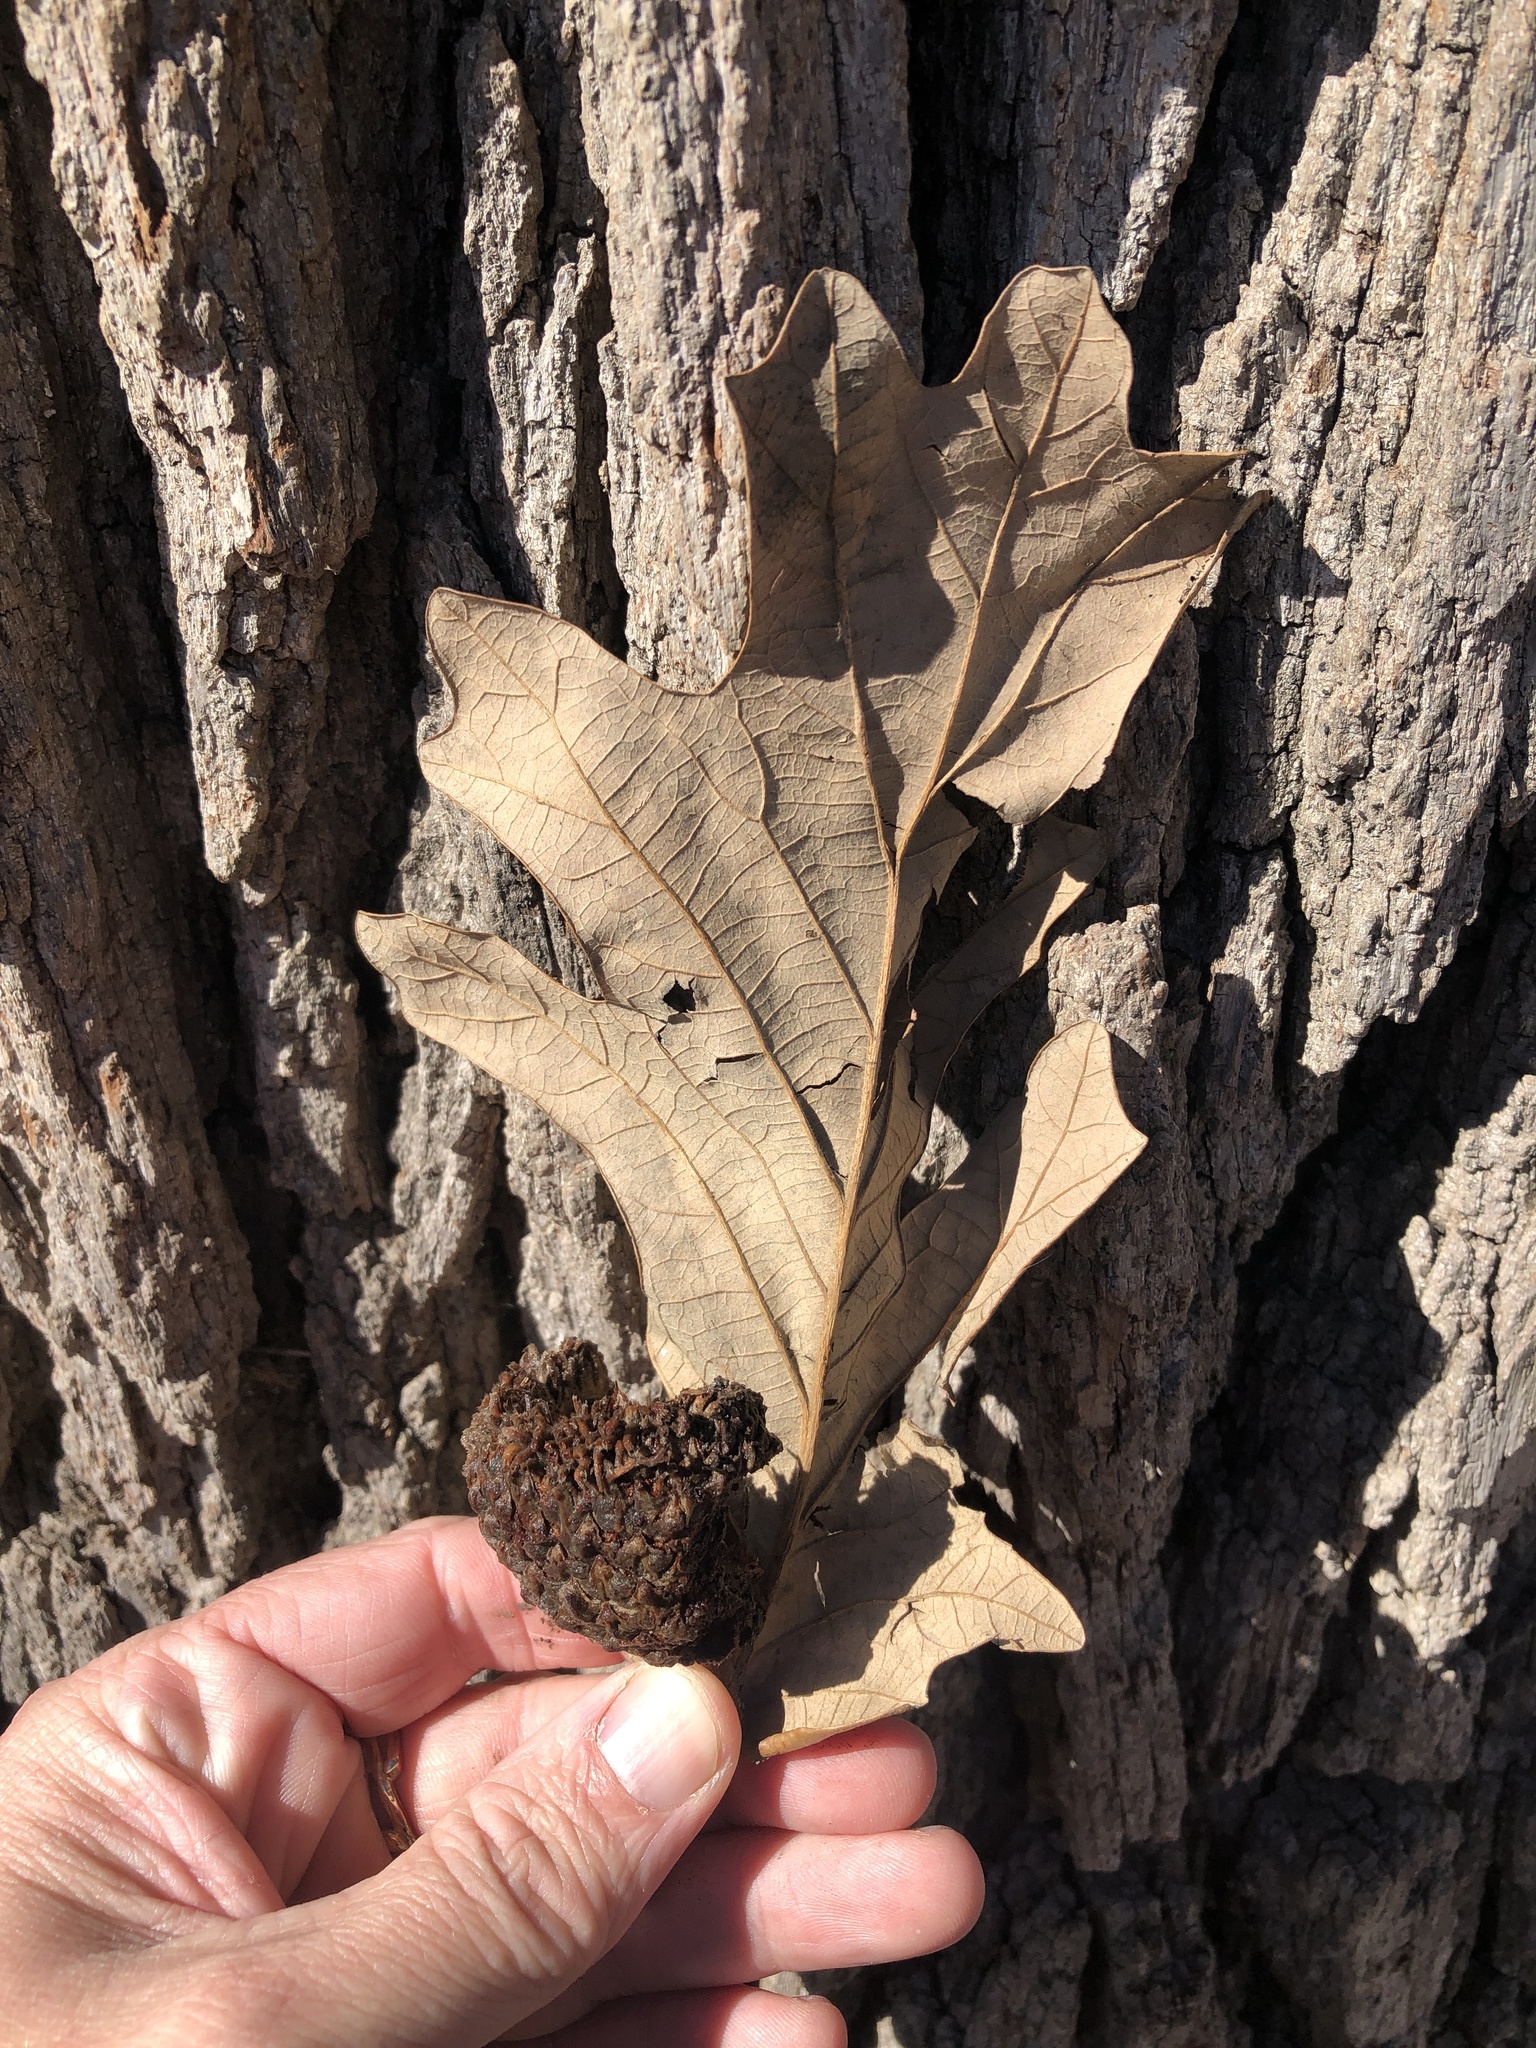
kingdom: Plantae
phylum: Tracheophyta
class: Magnoliopsida
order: Fagales
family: Fagaceae
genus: Quercus
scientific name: Quercus macrocarpa
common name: Bur oak
